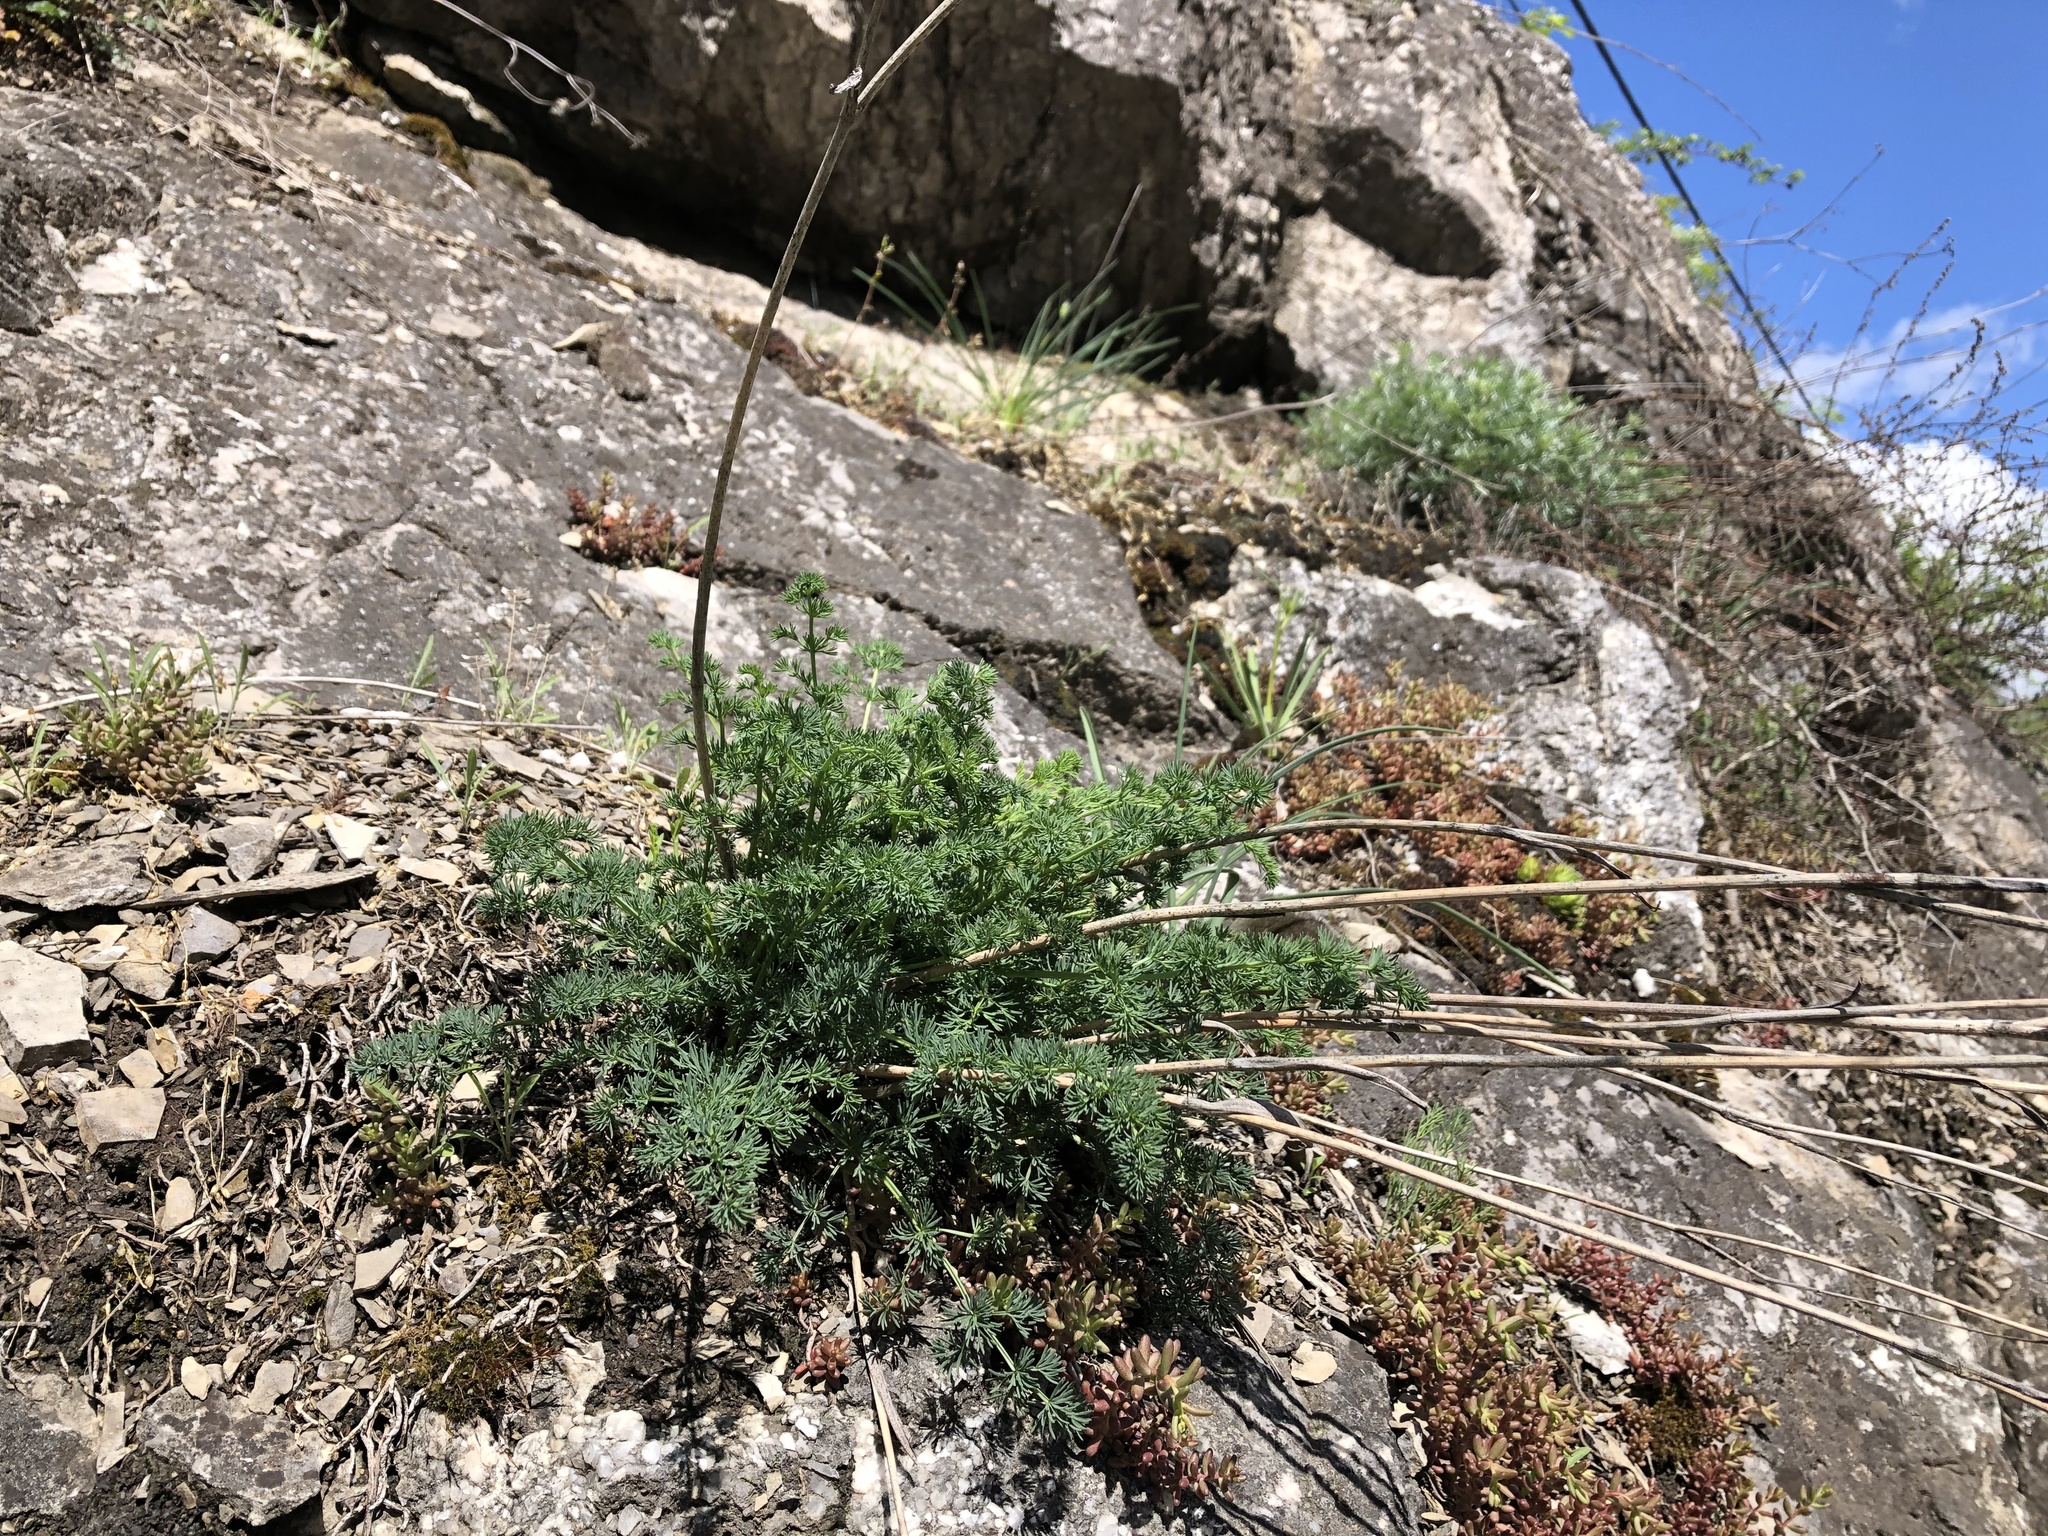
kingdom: Plantae
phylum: Tracheophyta
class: Magnoliopsida
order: Asterales
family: Asteraceae
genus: Artemisia
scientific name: Artemisia campestris
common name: Field wormwood
